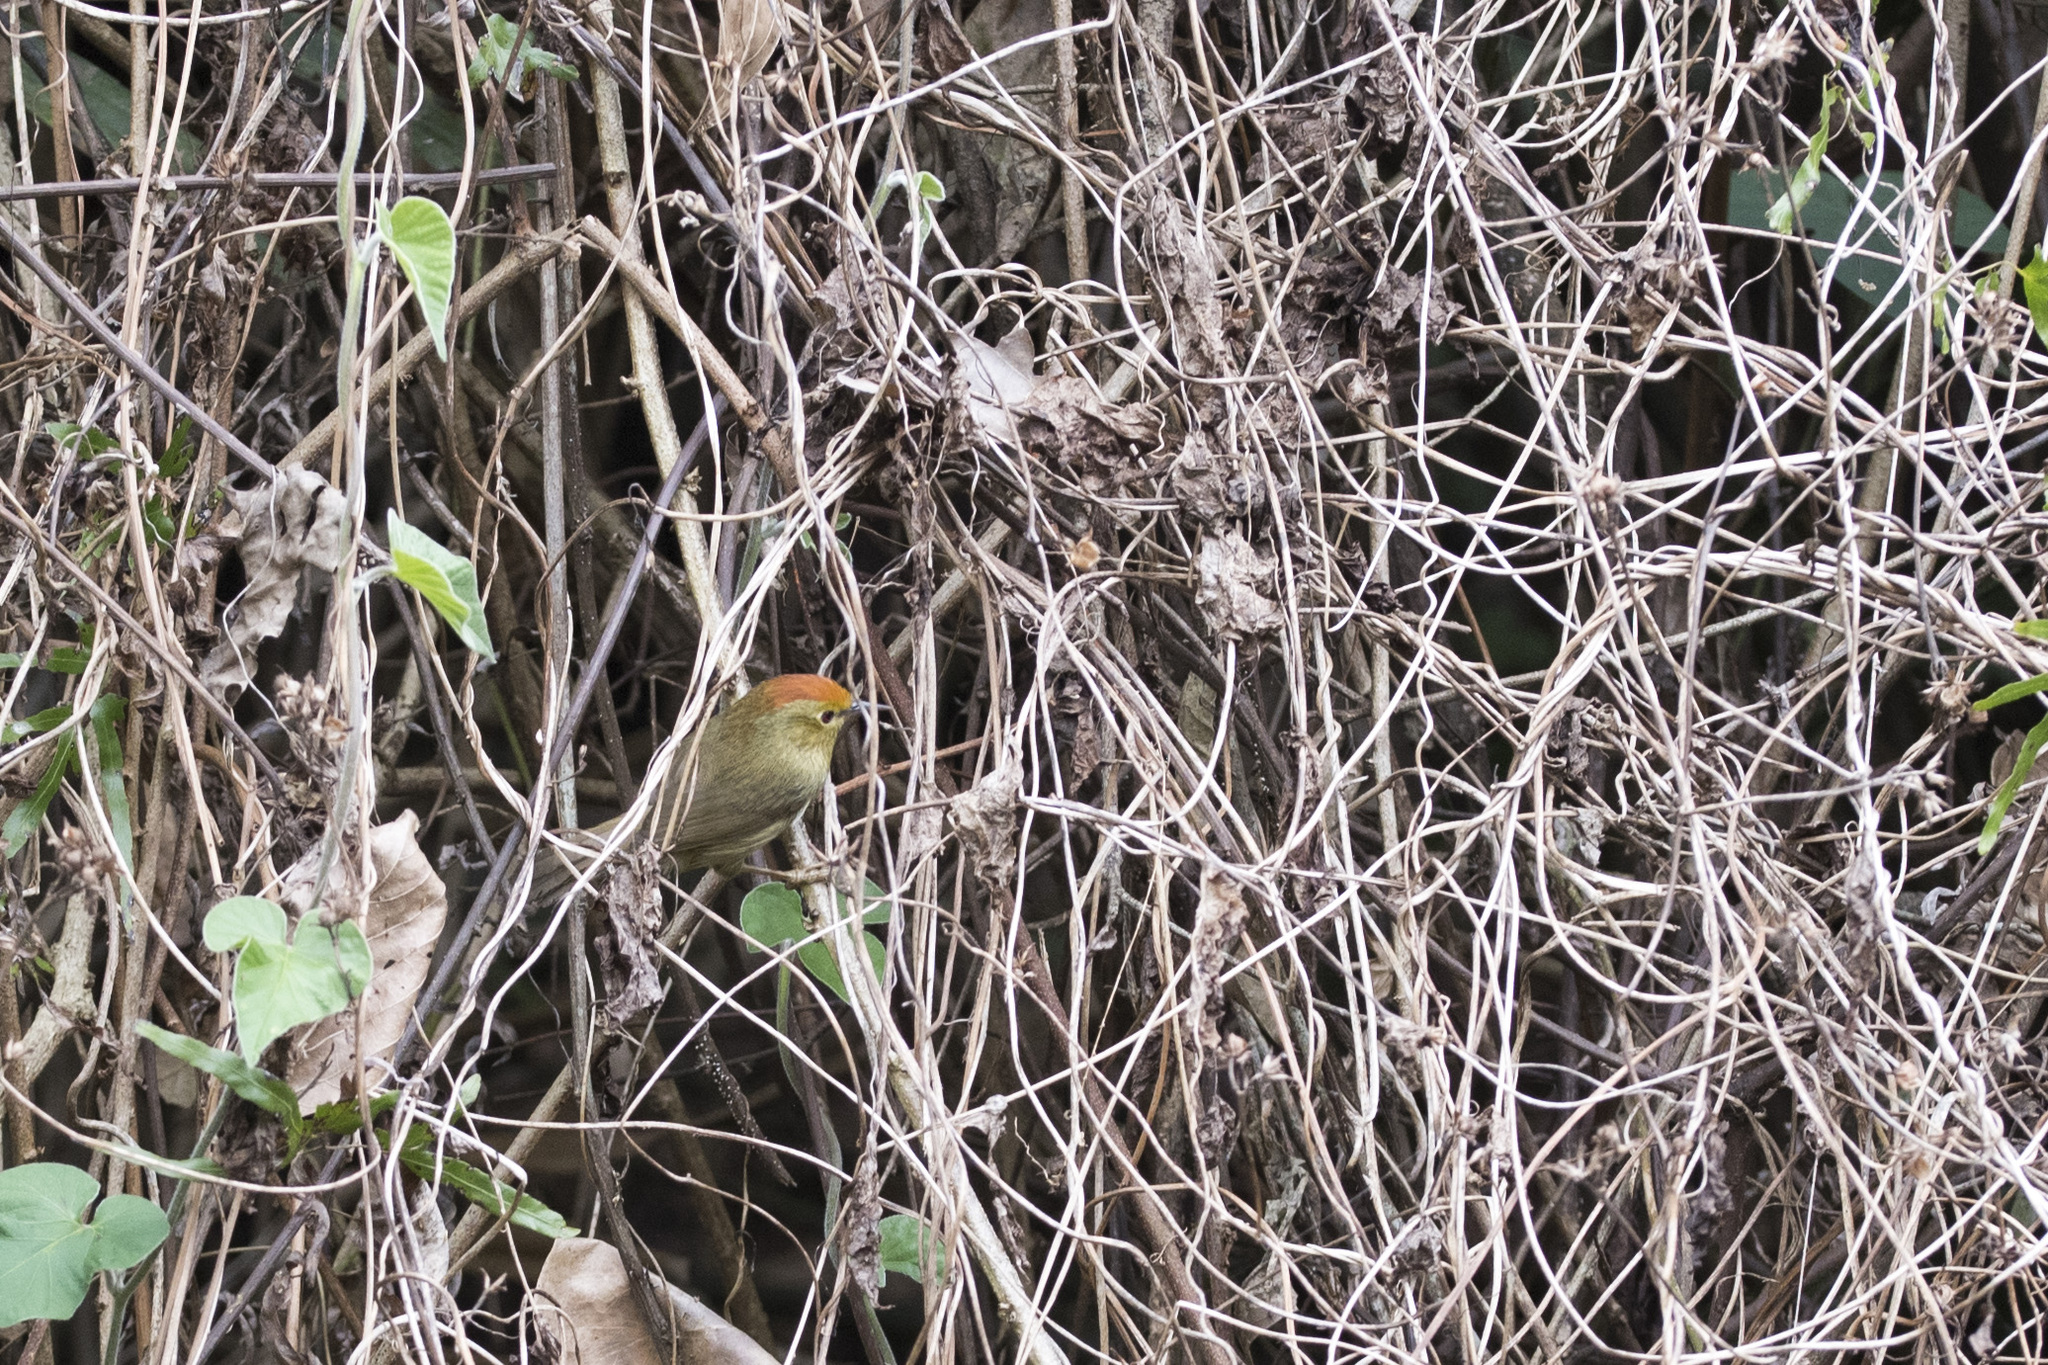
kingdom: Animalia
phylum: Chordata
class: Aves
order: Passeriformes
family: Timaliidae
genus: Stachyridopsis
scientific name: Stachyridopsis ruficeps
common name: Rufous-capped babbler
